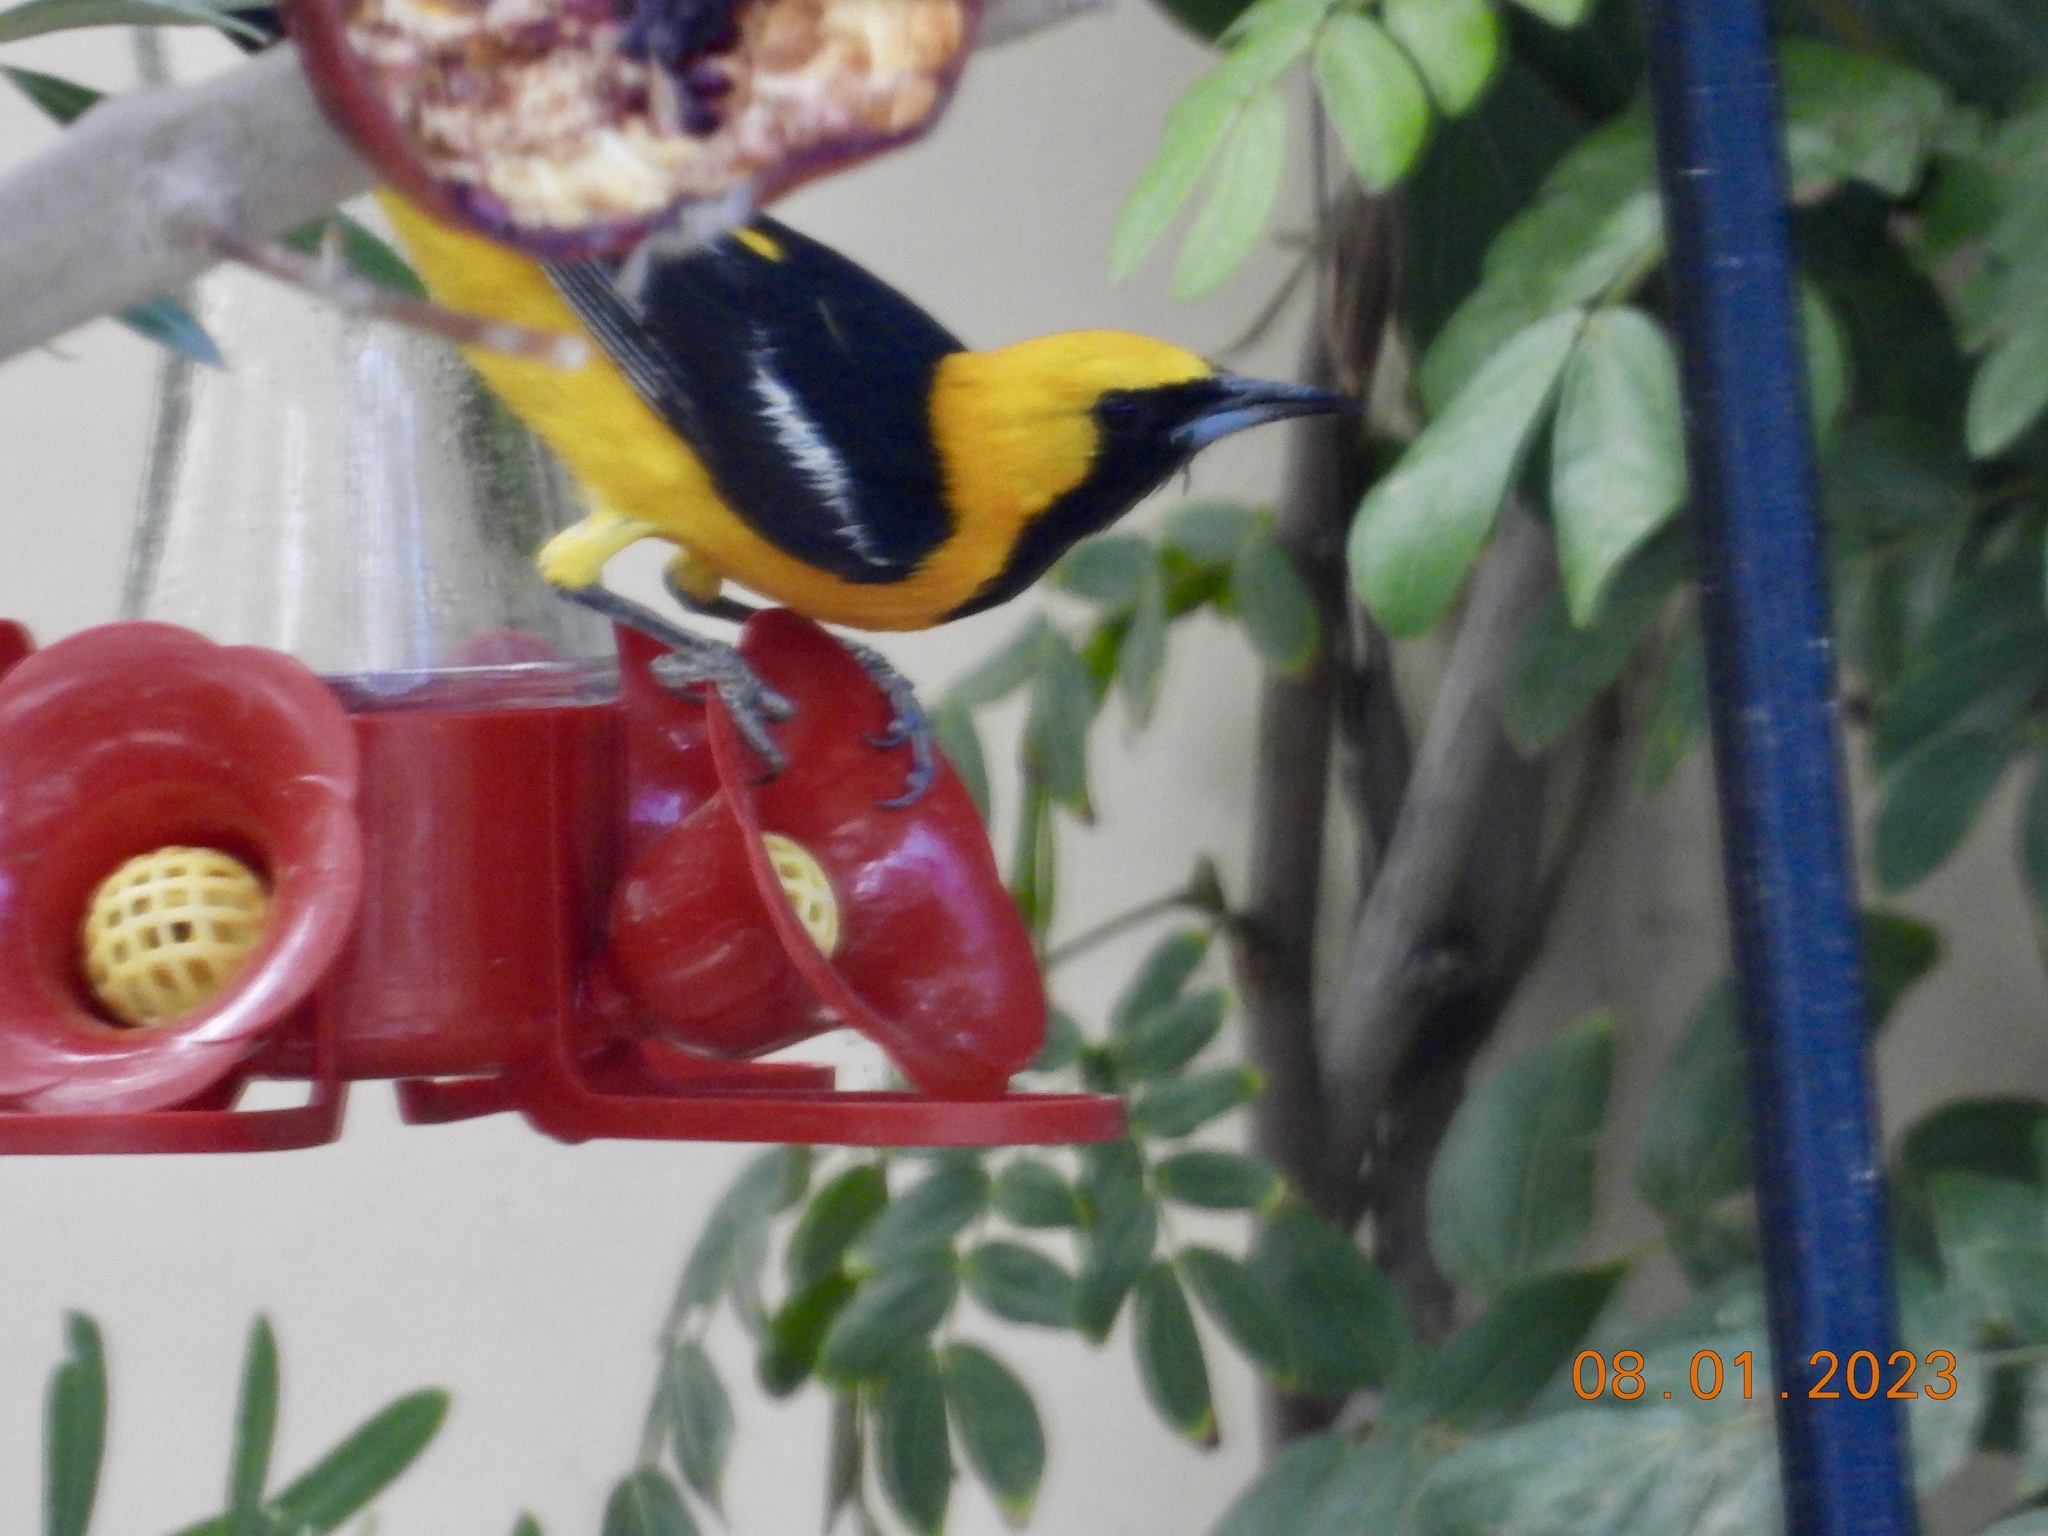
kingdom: Animalia
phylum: Chordata
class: Aves
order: Passeriformes
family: Icteridae
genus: Icterus
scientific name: Icterus cucullatus
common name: Hooded oriole
